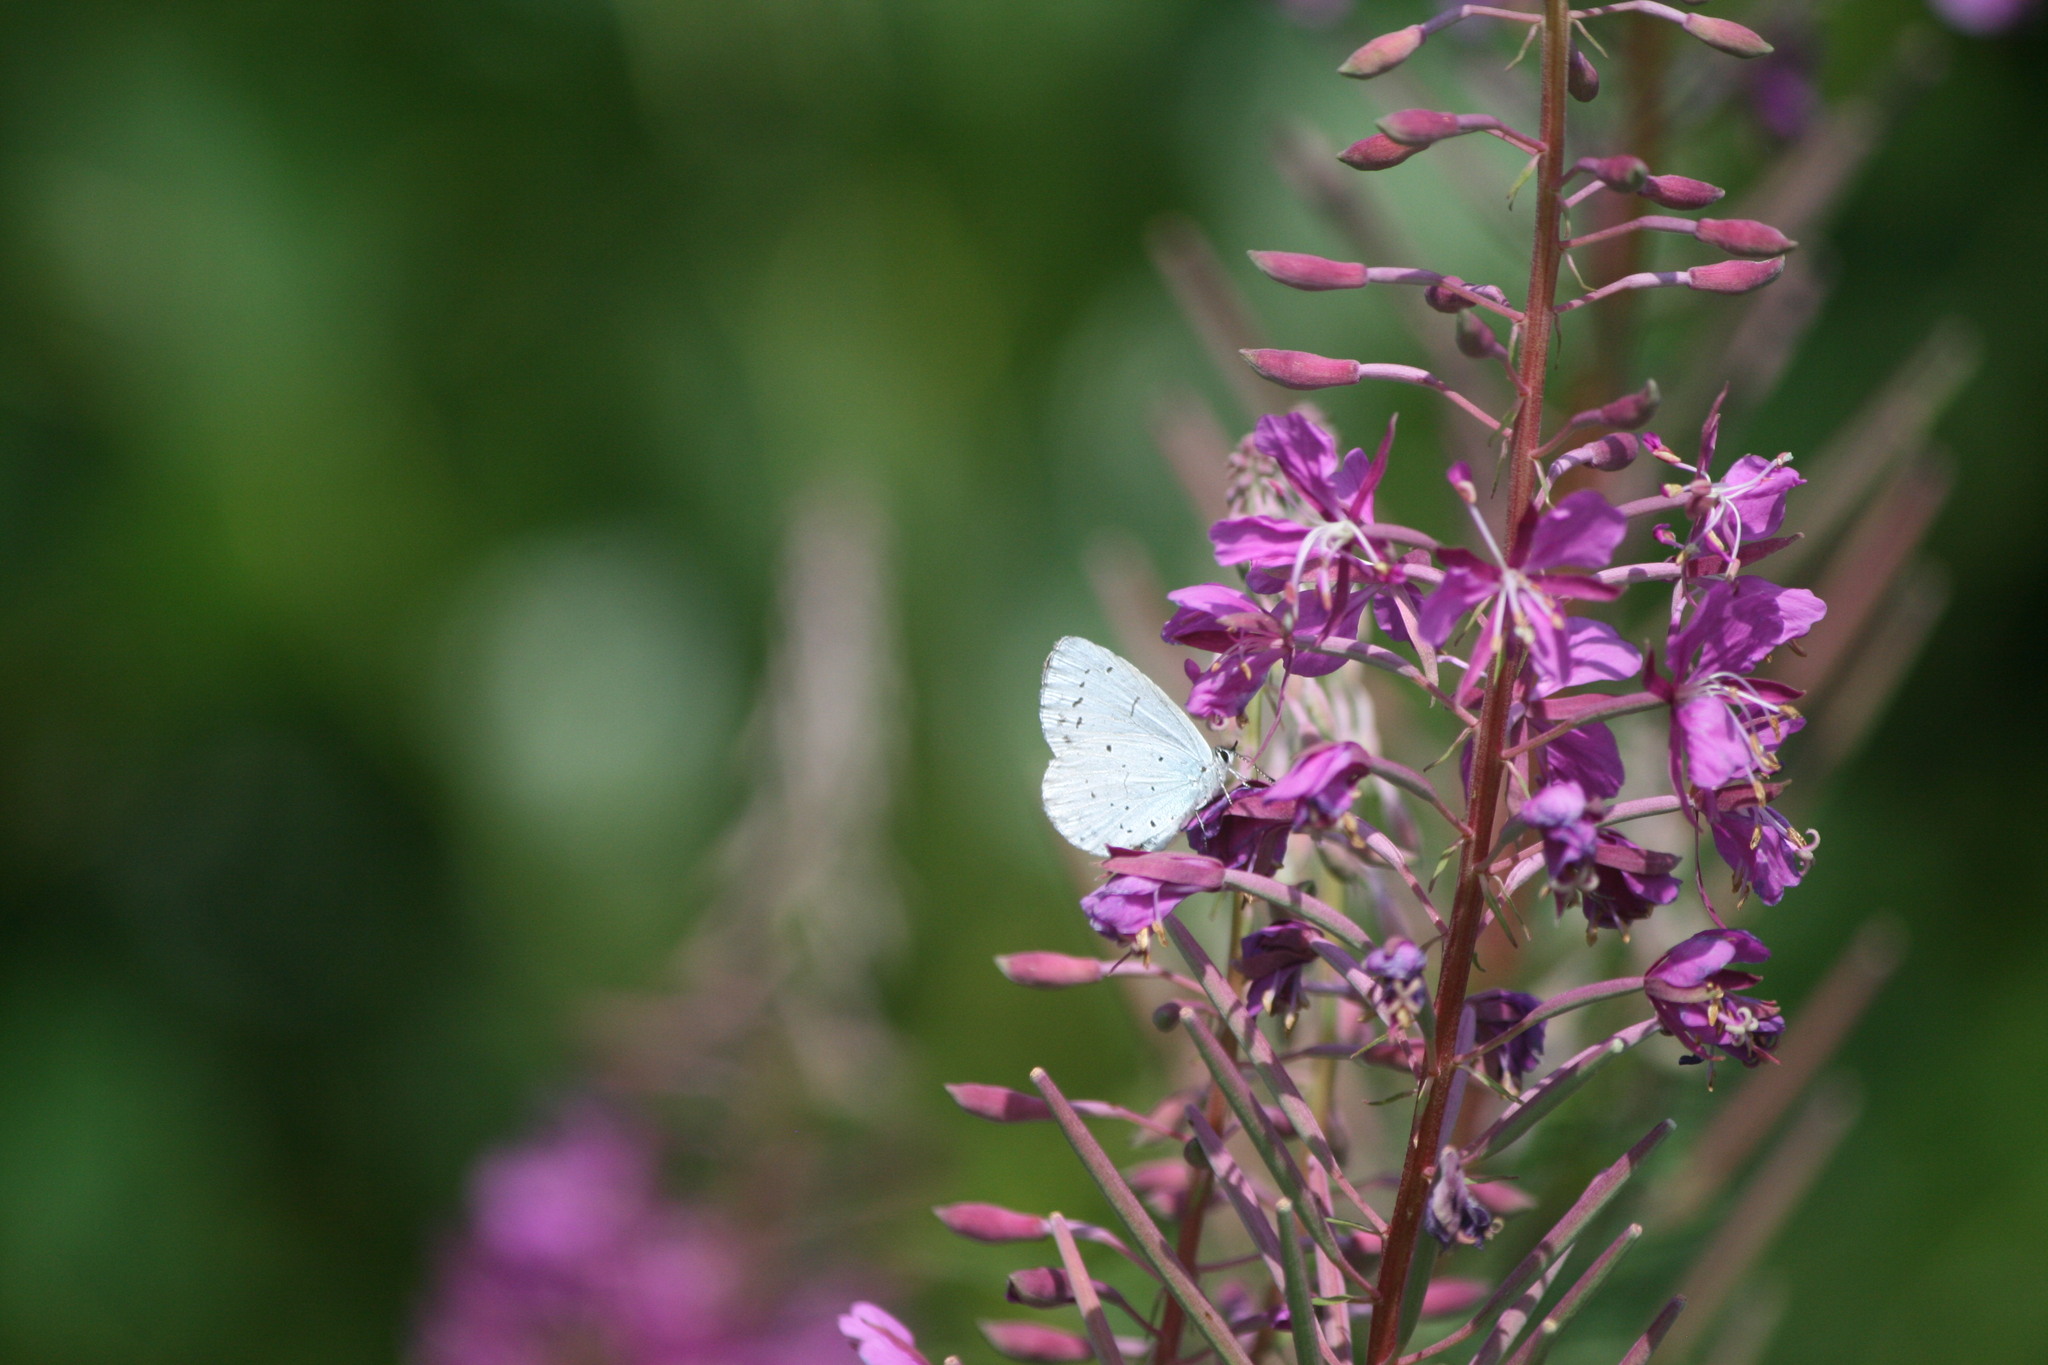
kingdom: Animalia
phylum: Arthropoda
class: Insecta
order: Lepidoptera
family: Lycaenidae
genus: Celastrina
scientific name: Celastrina argiolus
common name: Holly blue
